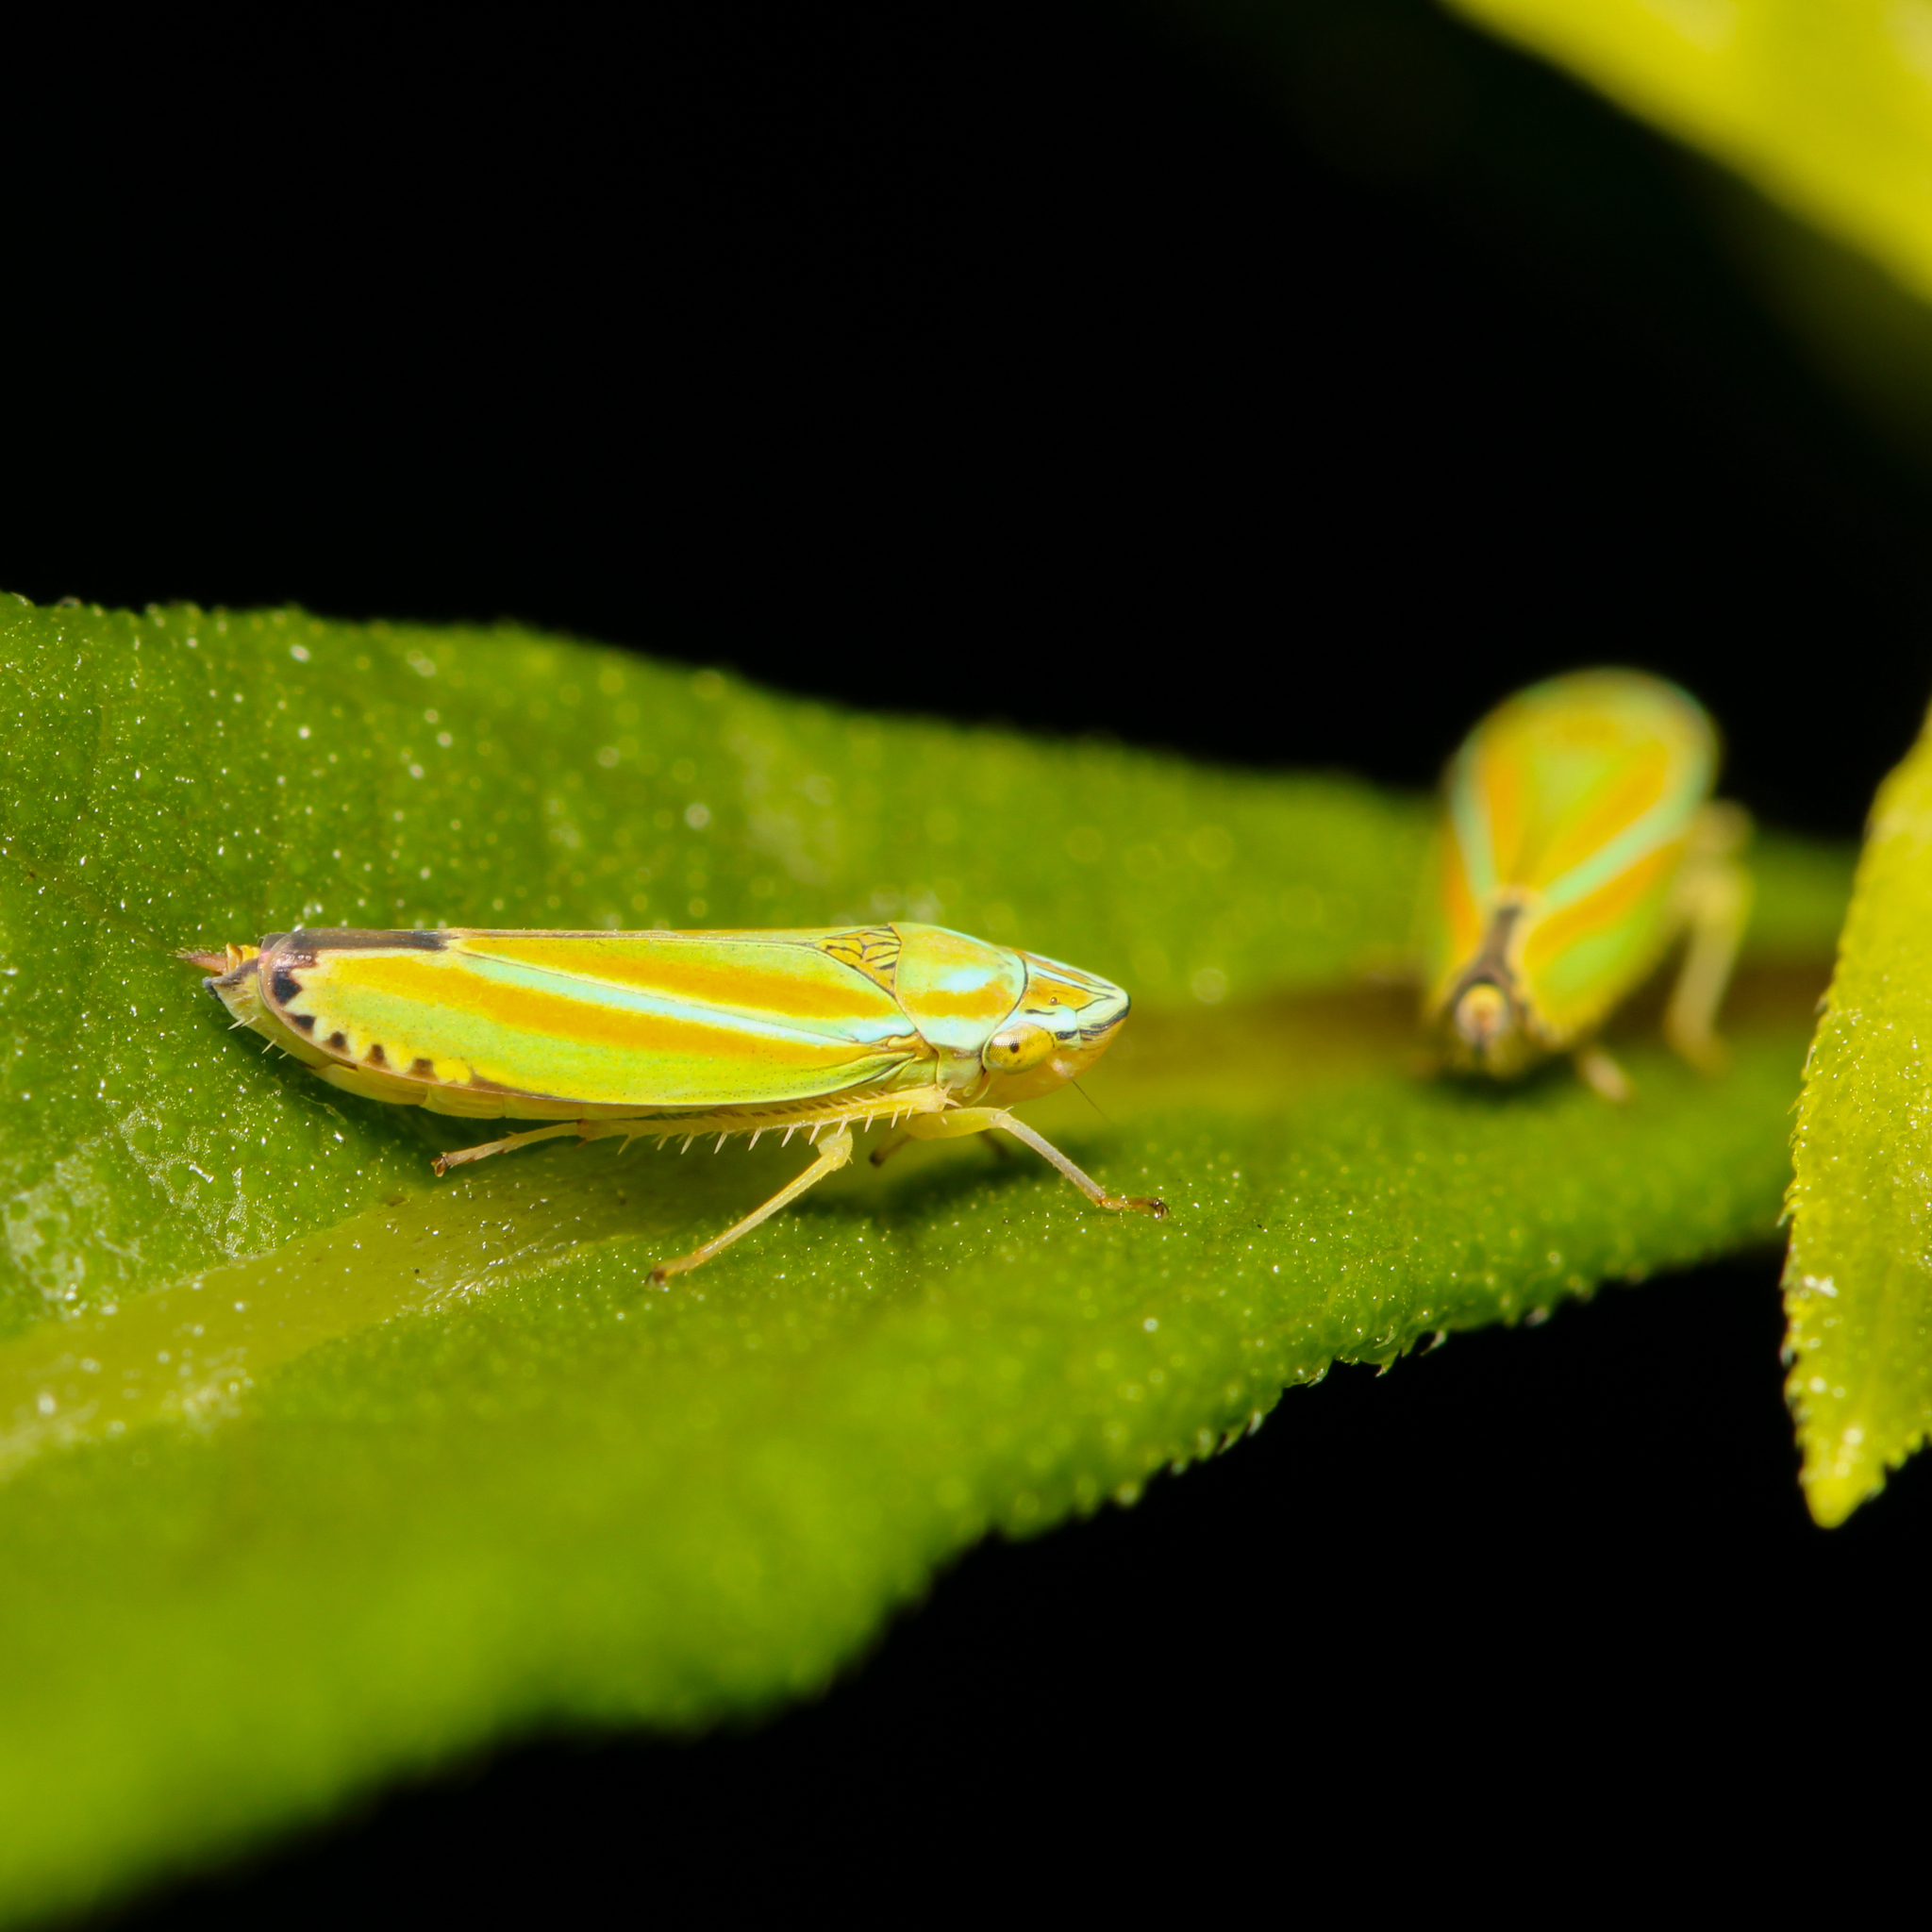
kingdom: Animalia
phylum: Arthropoda
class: Insecta
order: Hemiptera
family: Cicadellidae
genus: Graphocephala
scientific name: Graphocephala versuta
